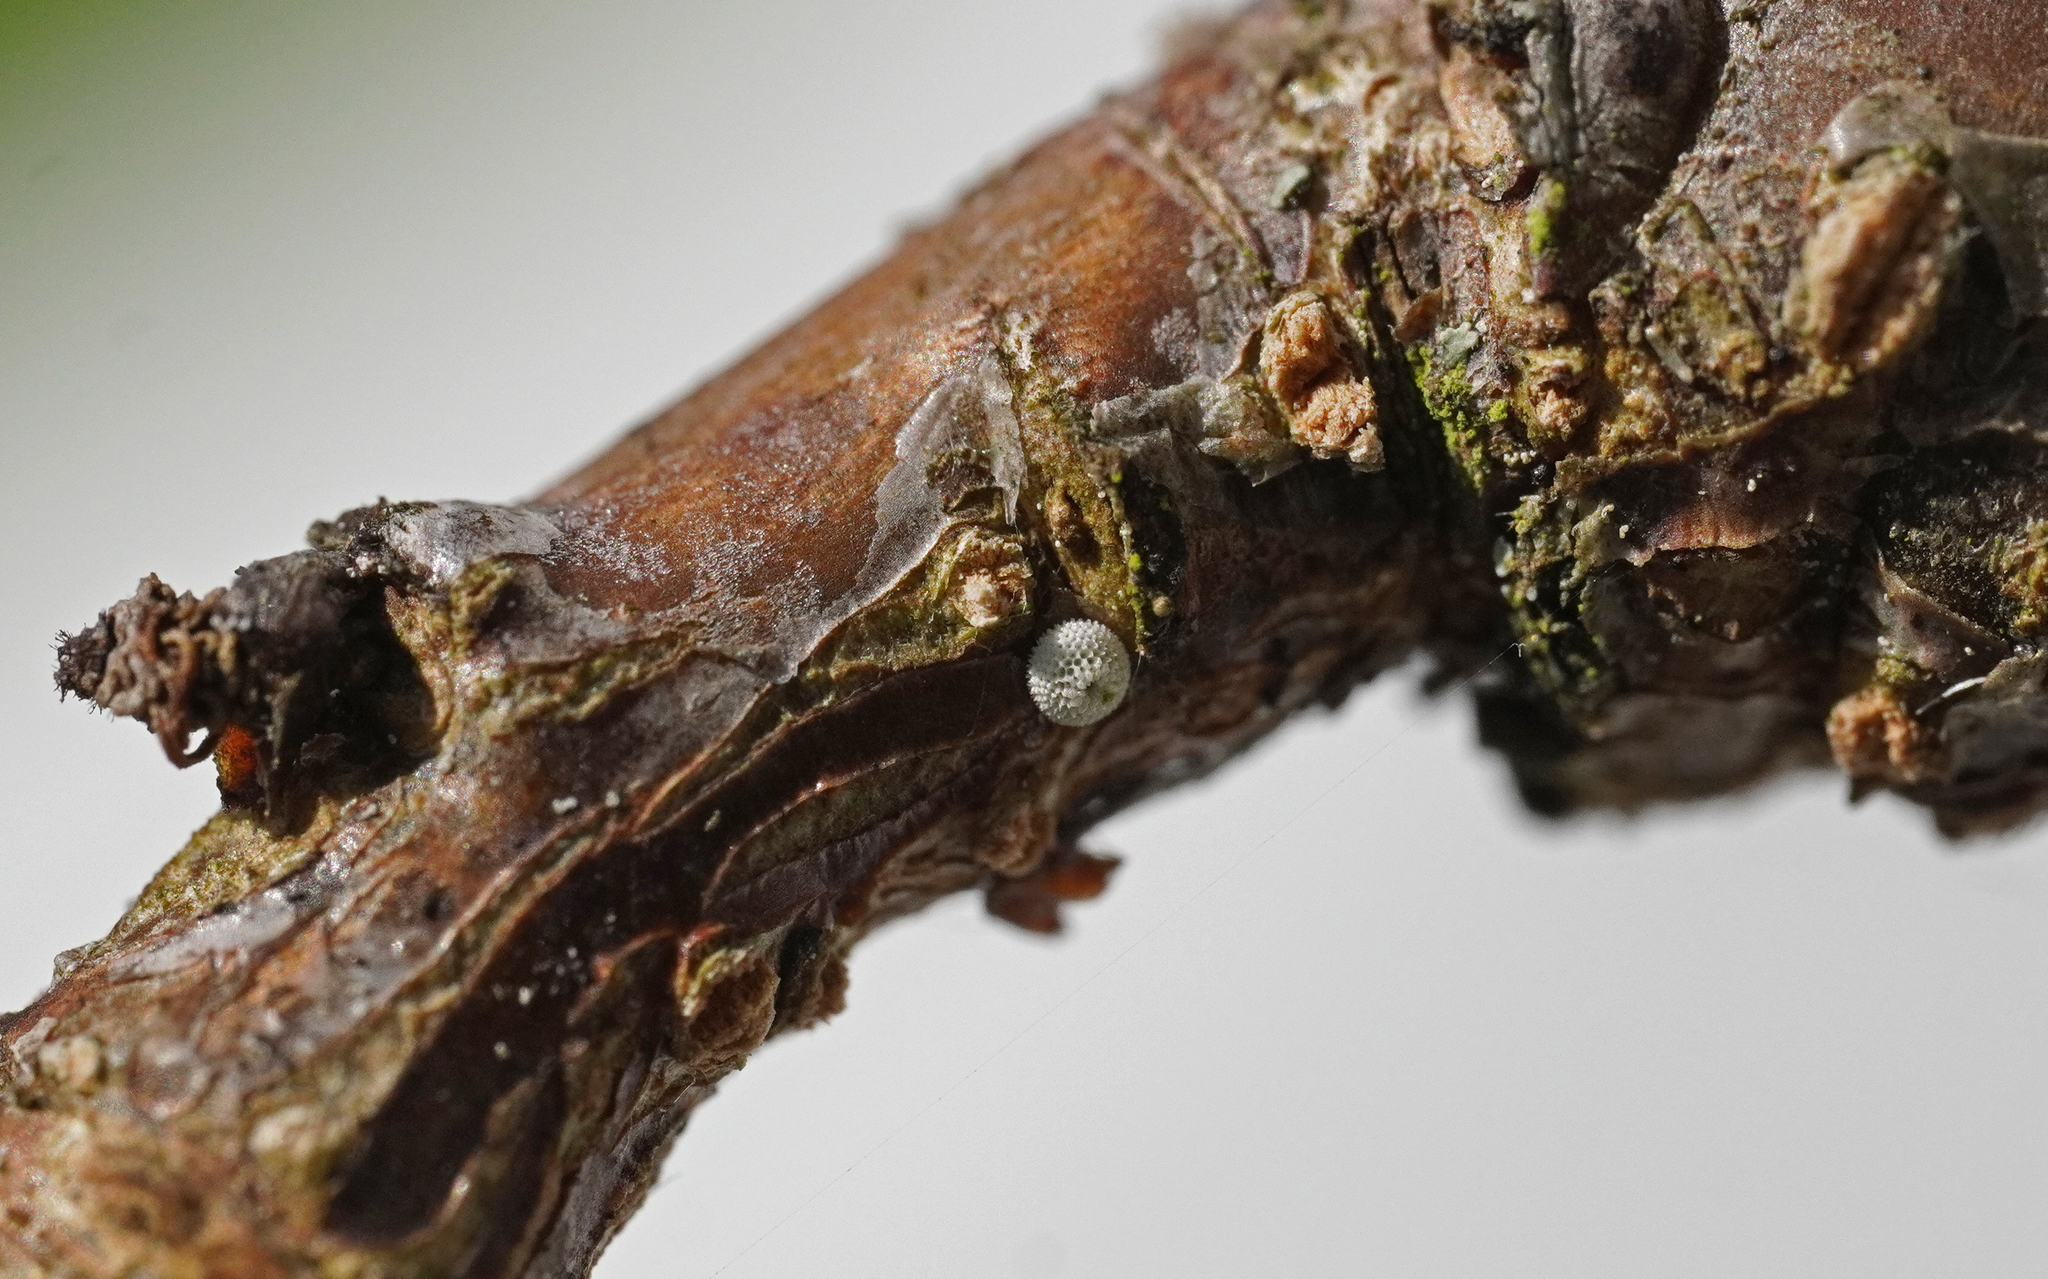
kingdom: Animalia
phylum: Arthropoda
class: Insecta
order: Lepidoptera
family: Lycaenidae
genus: Thecla
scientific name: Thecla betulae
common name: Brown hairstreak
